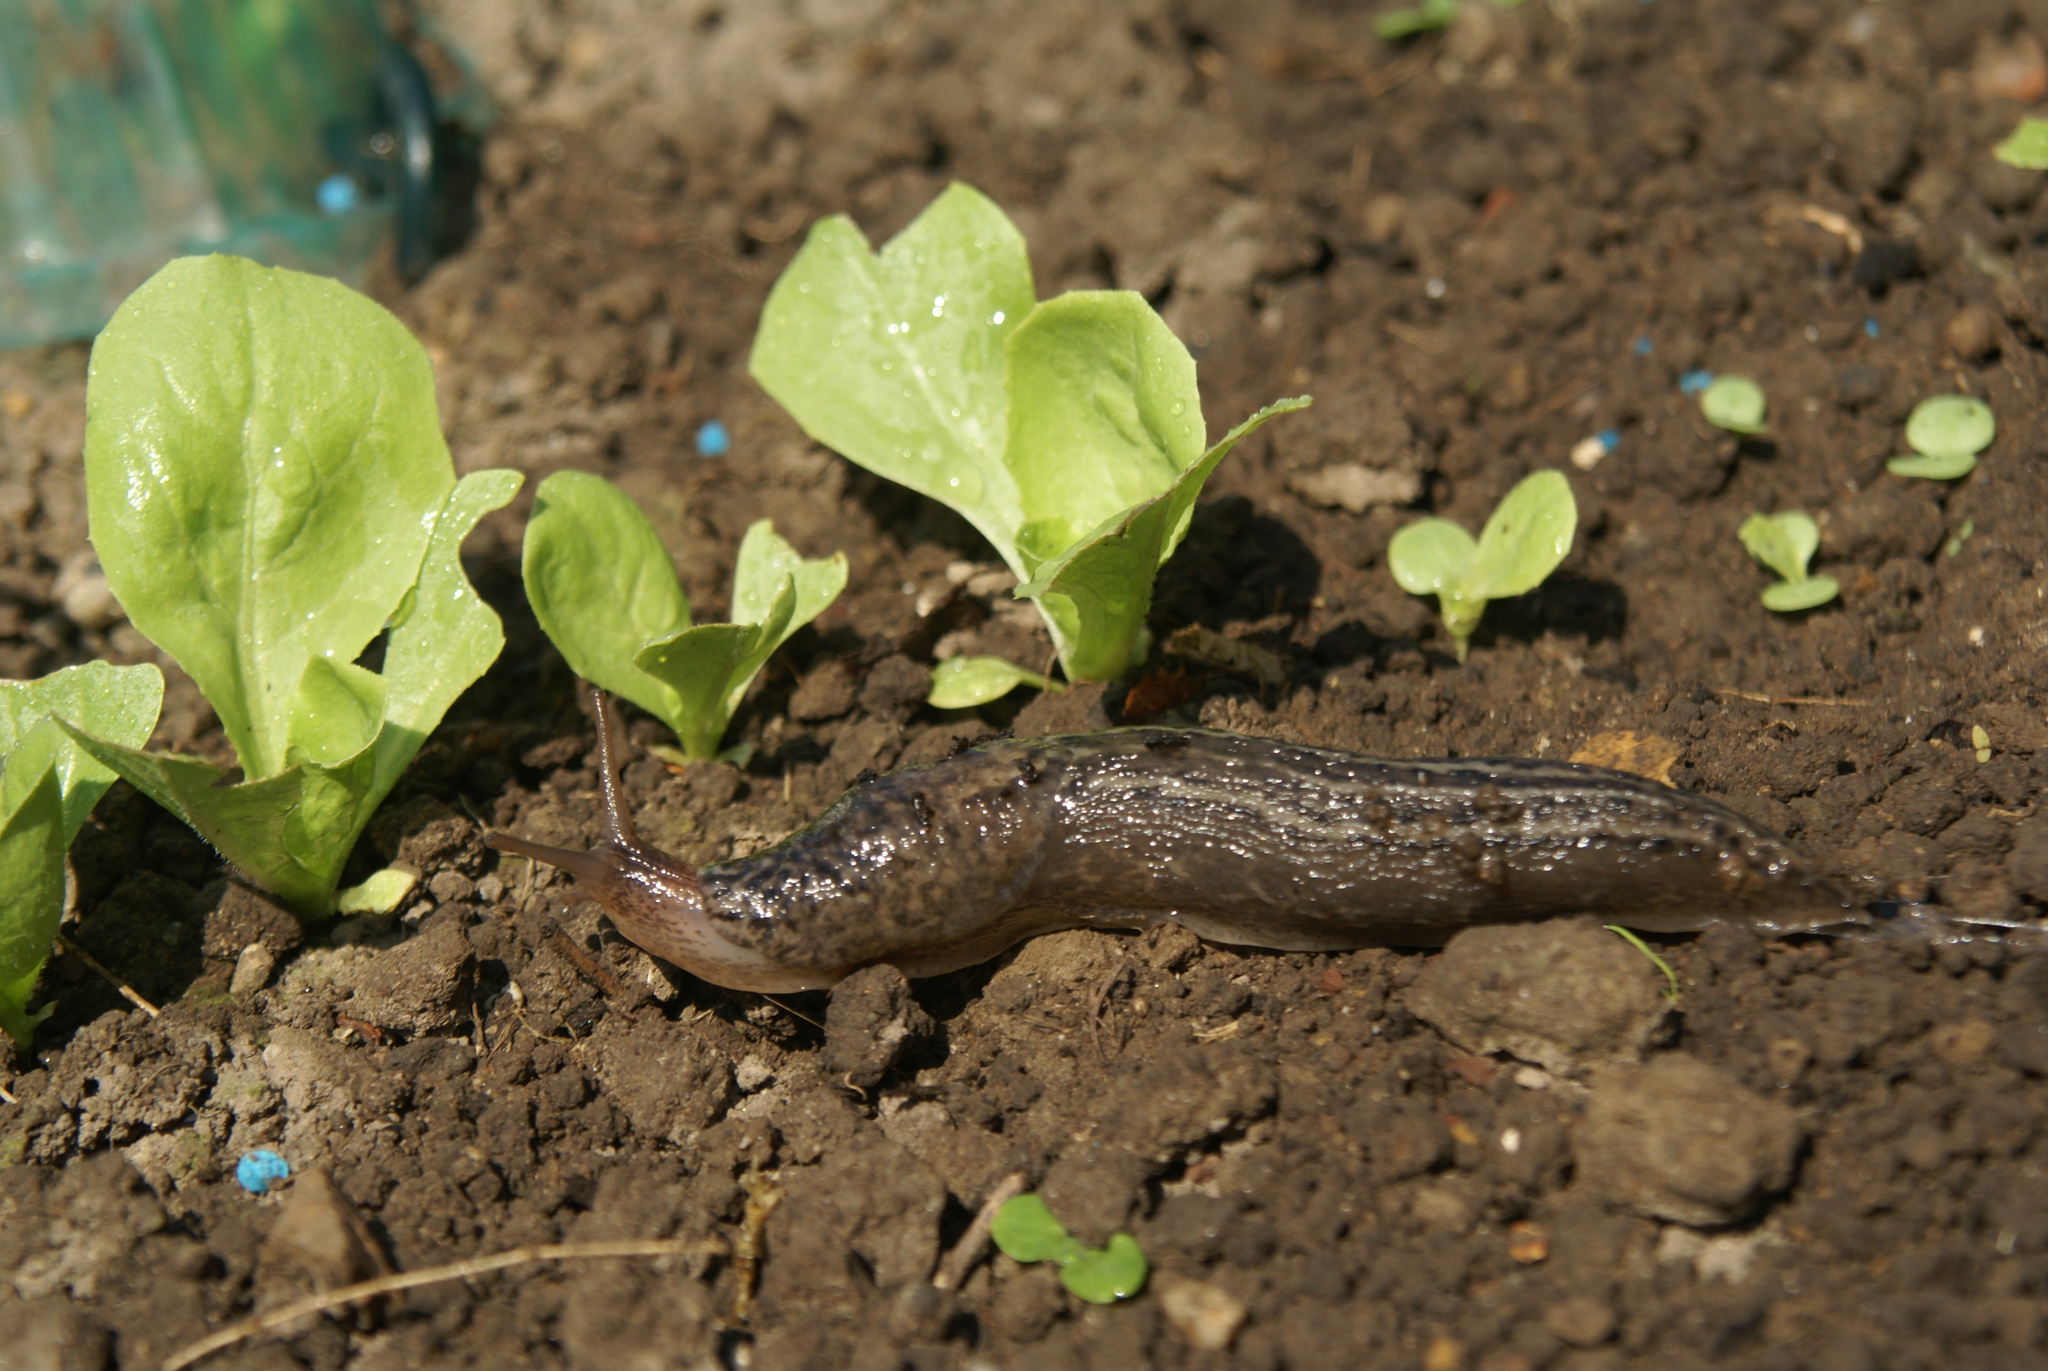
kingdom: Animalia
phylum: Mollusca
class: Gastropoda
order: Stylommatophora
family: Limacidae
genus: Limax
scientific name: Limax maximus
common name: Great grey slug
